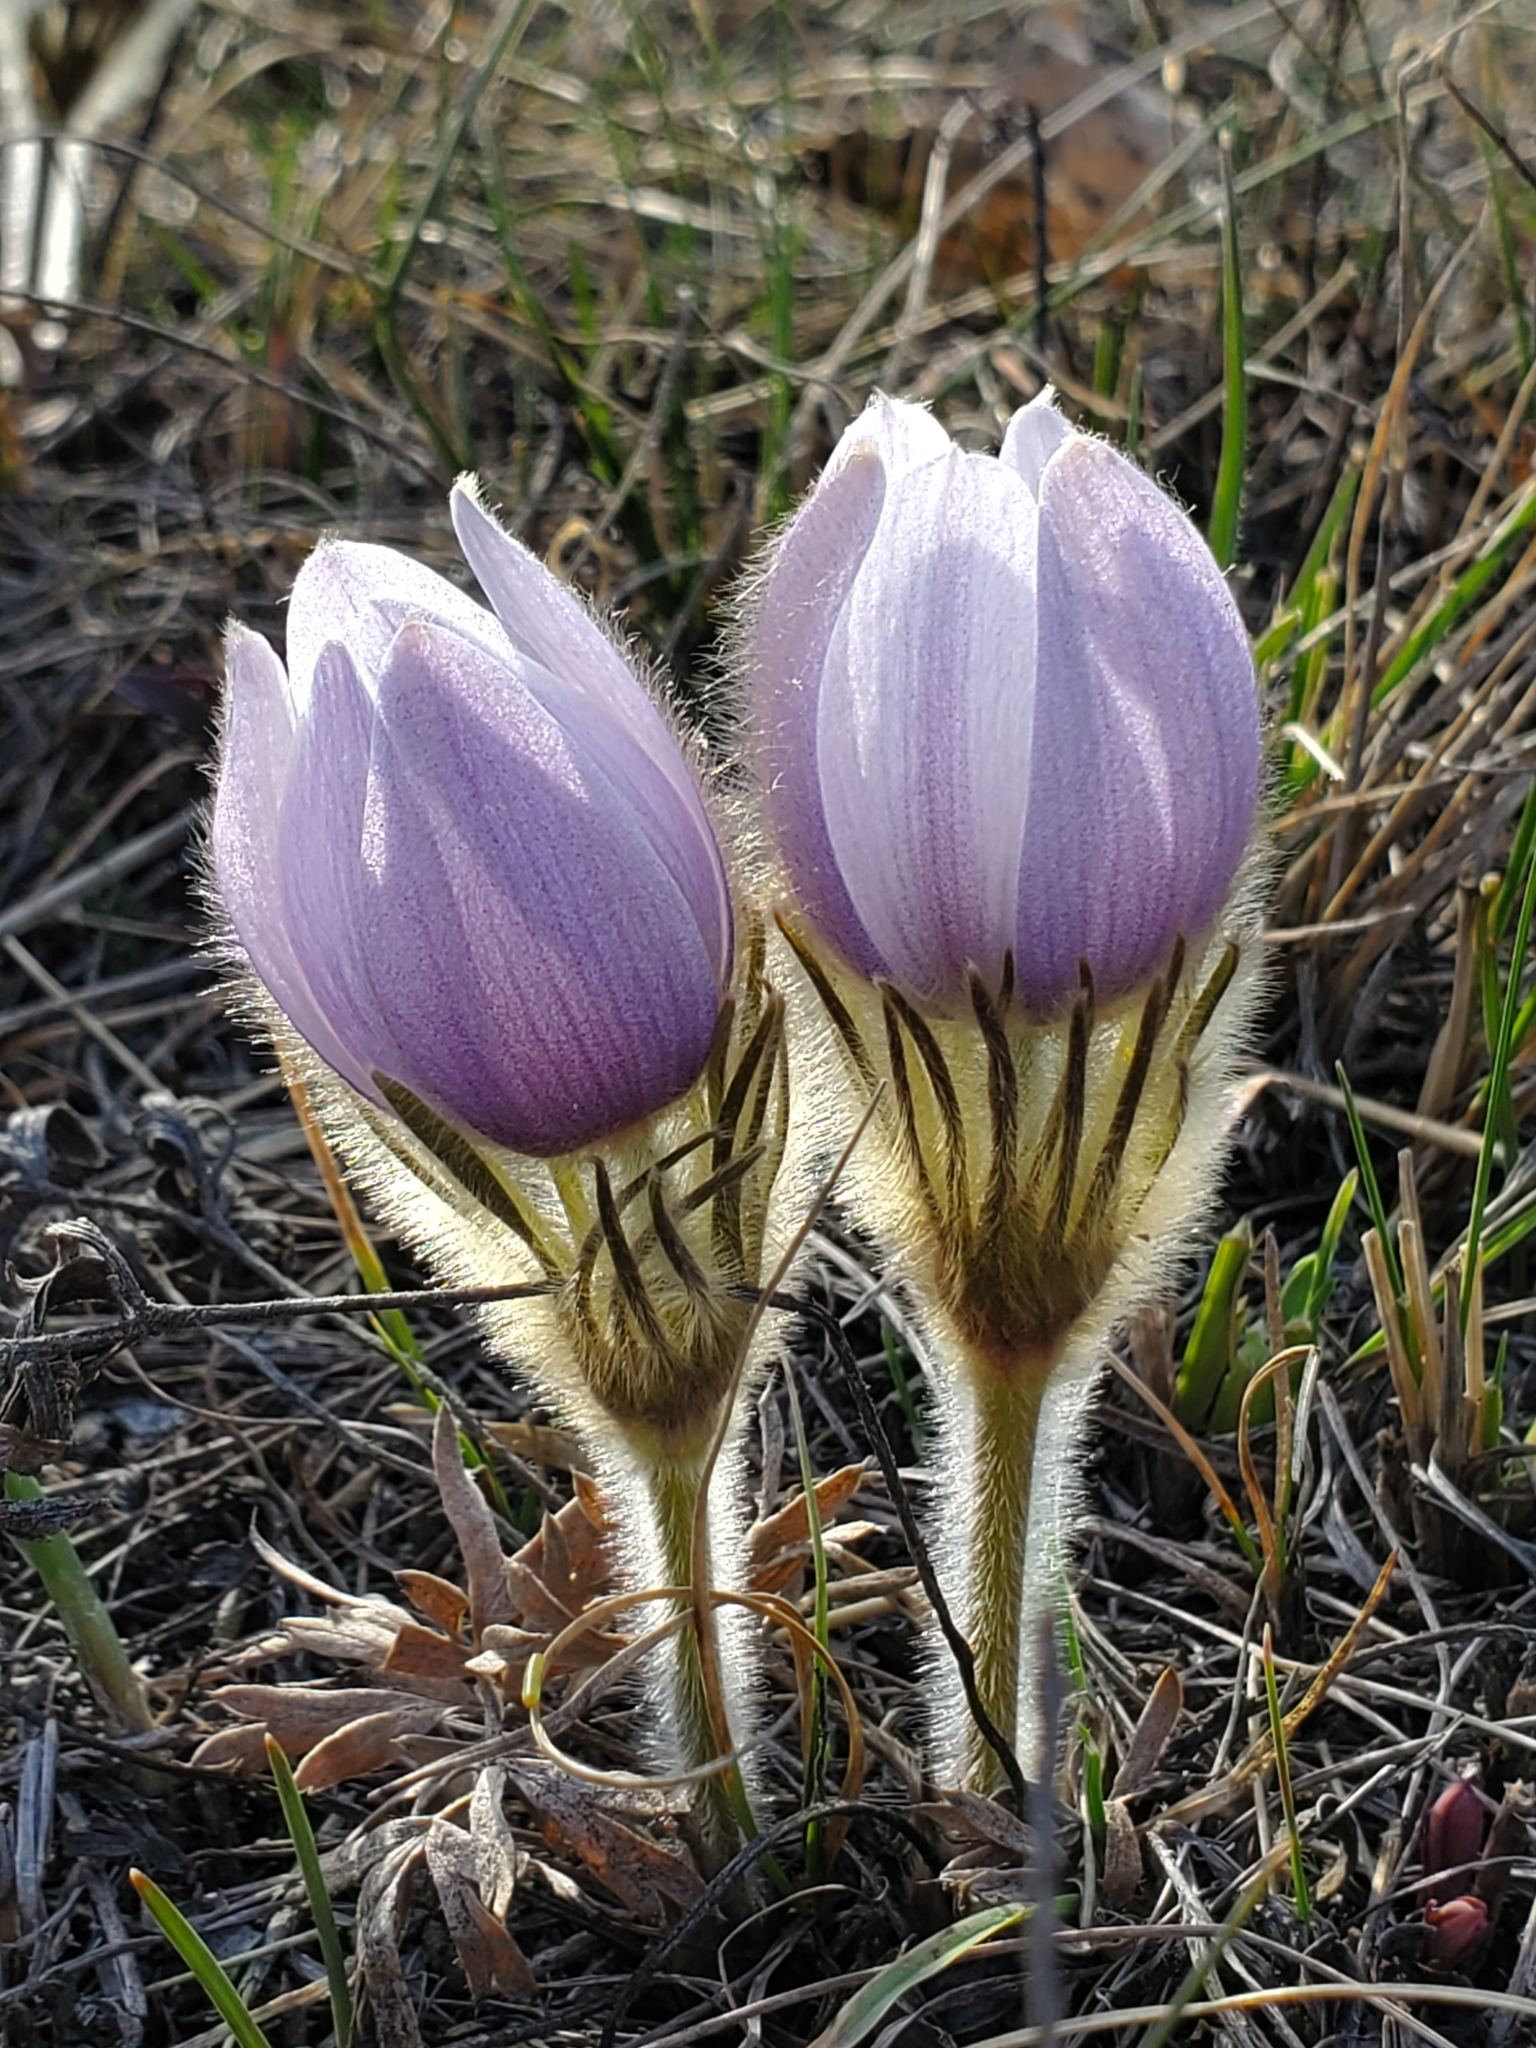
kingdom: Plantae
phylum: Tracheophyta
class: Magnoliopsida
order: Ranunculales
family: Ranunculaceae
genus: Pulsatilla
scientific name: Pulsatilla nuttalliana
